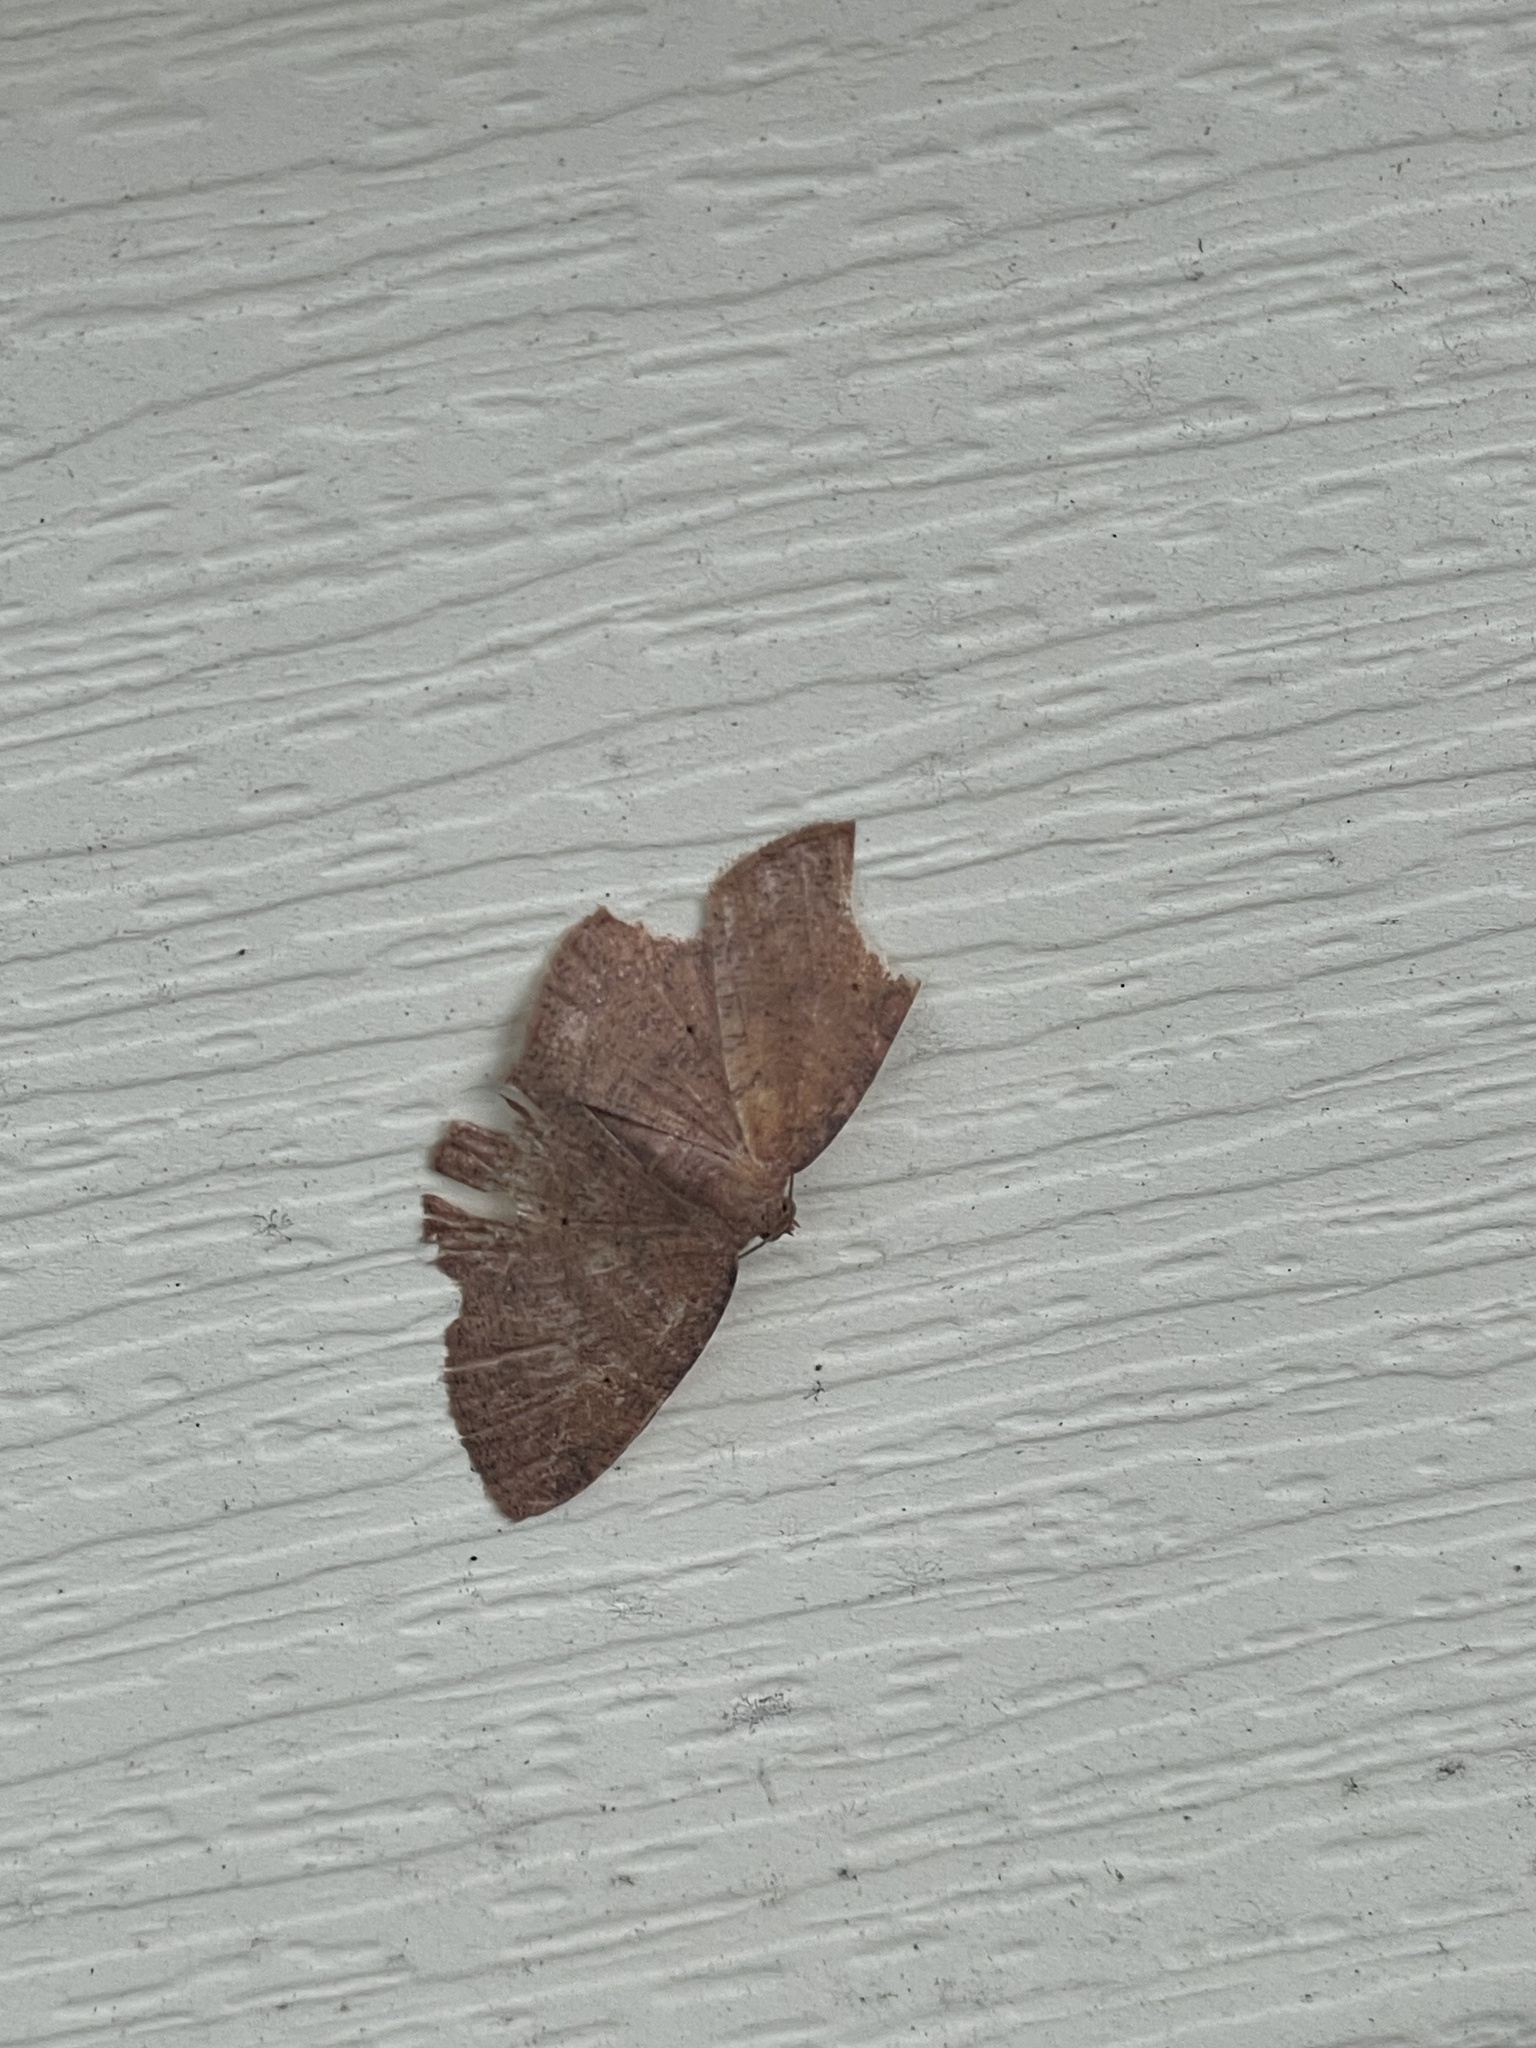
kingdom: Animalia
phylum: Arthropoda
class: Insecta
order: Lepidoptera
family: Geometridae
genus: Ilexia
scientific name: Ilexia intractata
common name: Black-dotted ruddy moth
